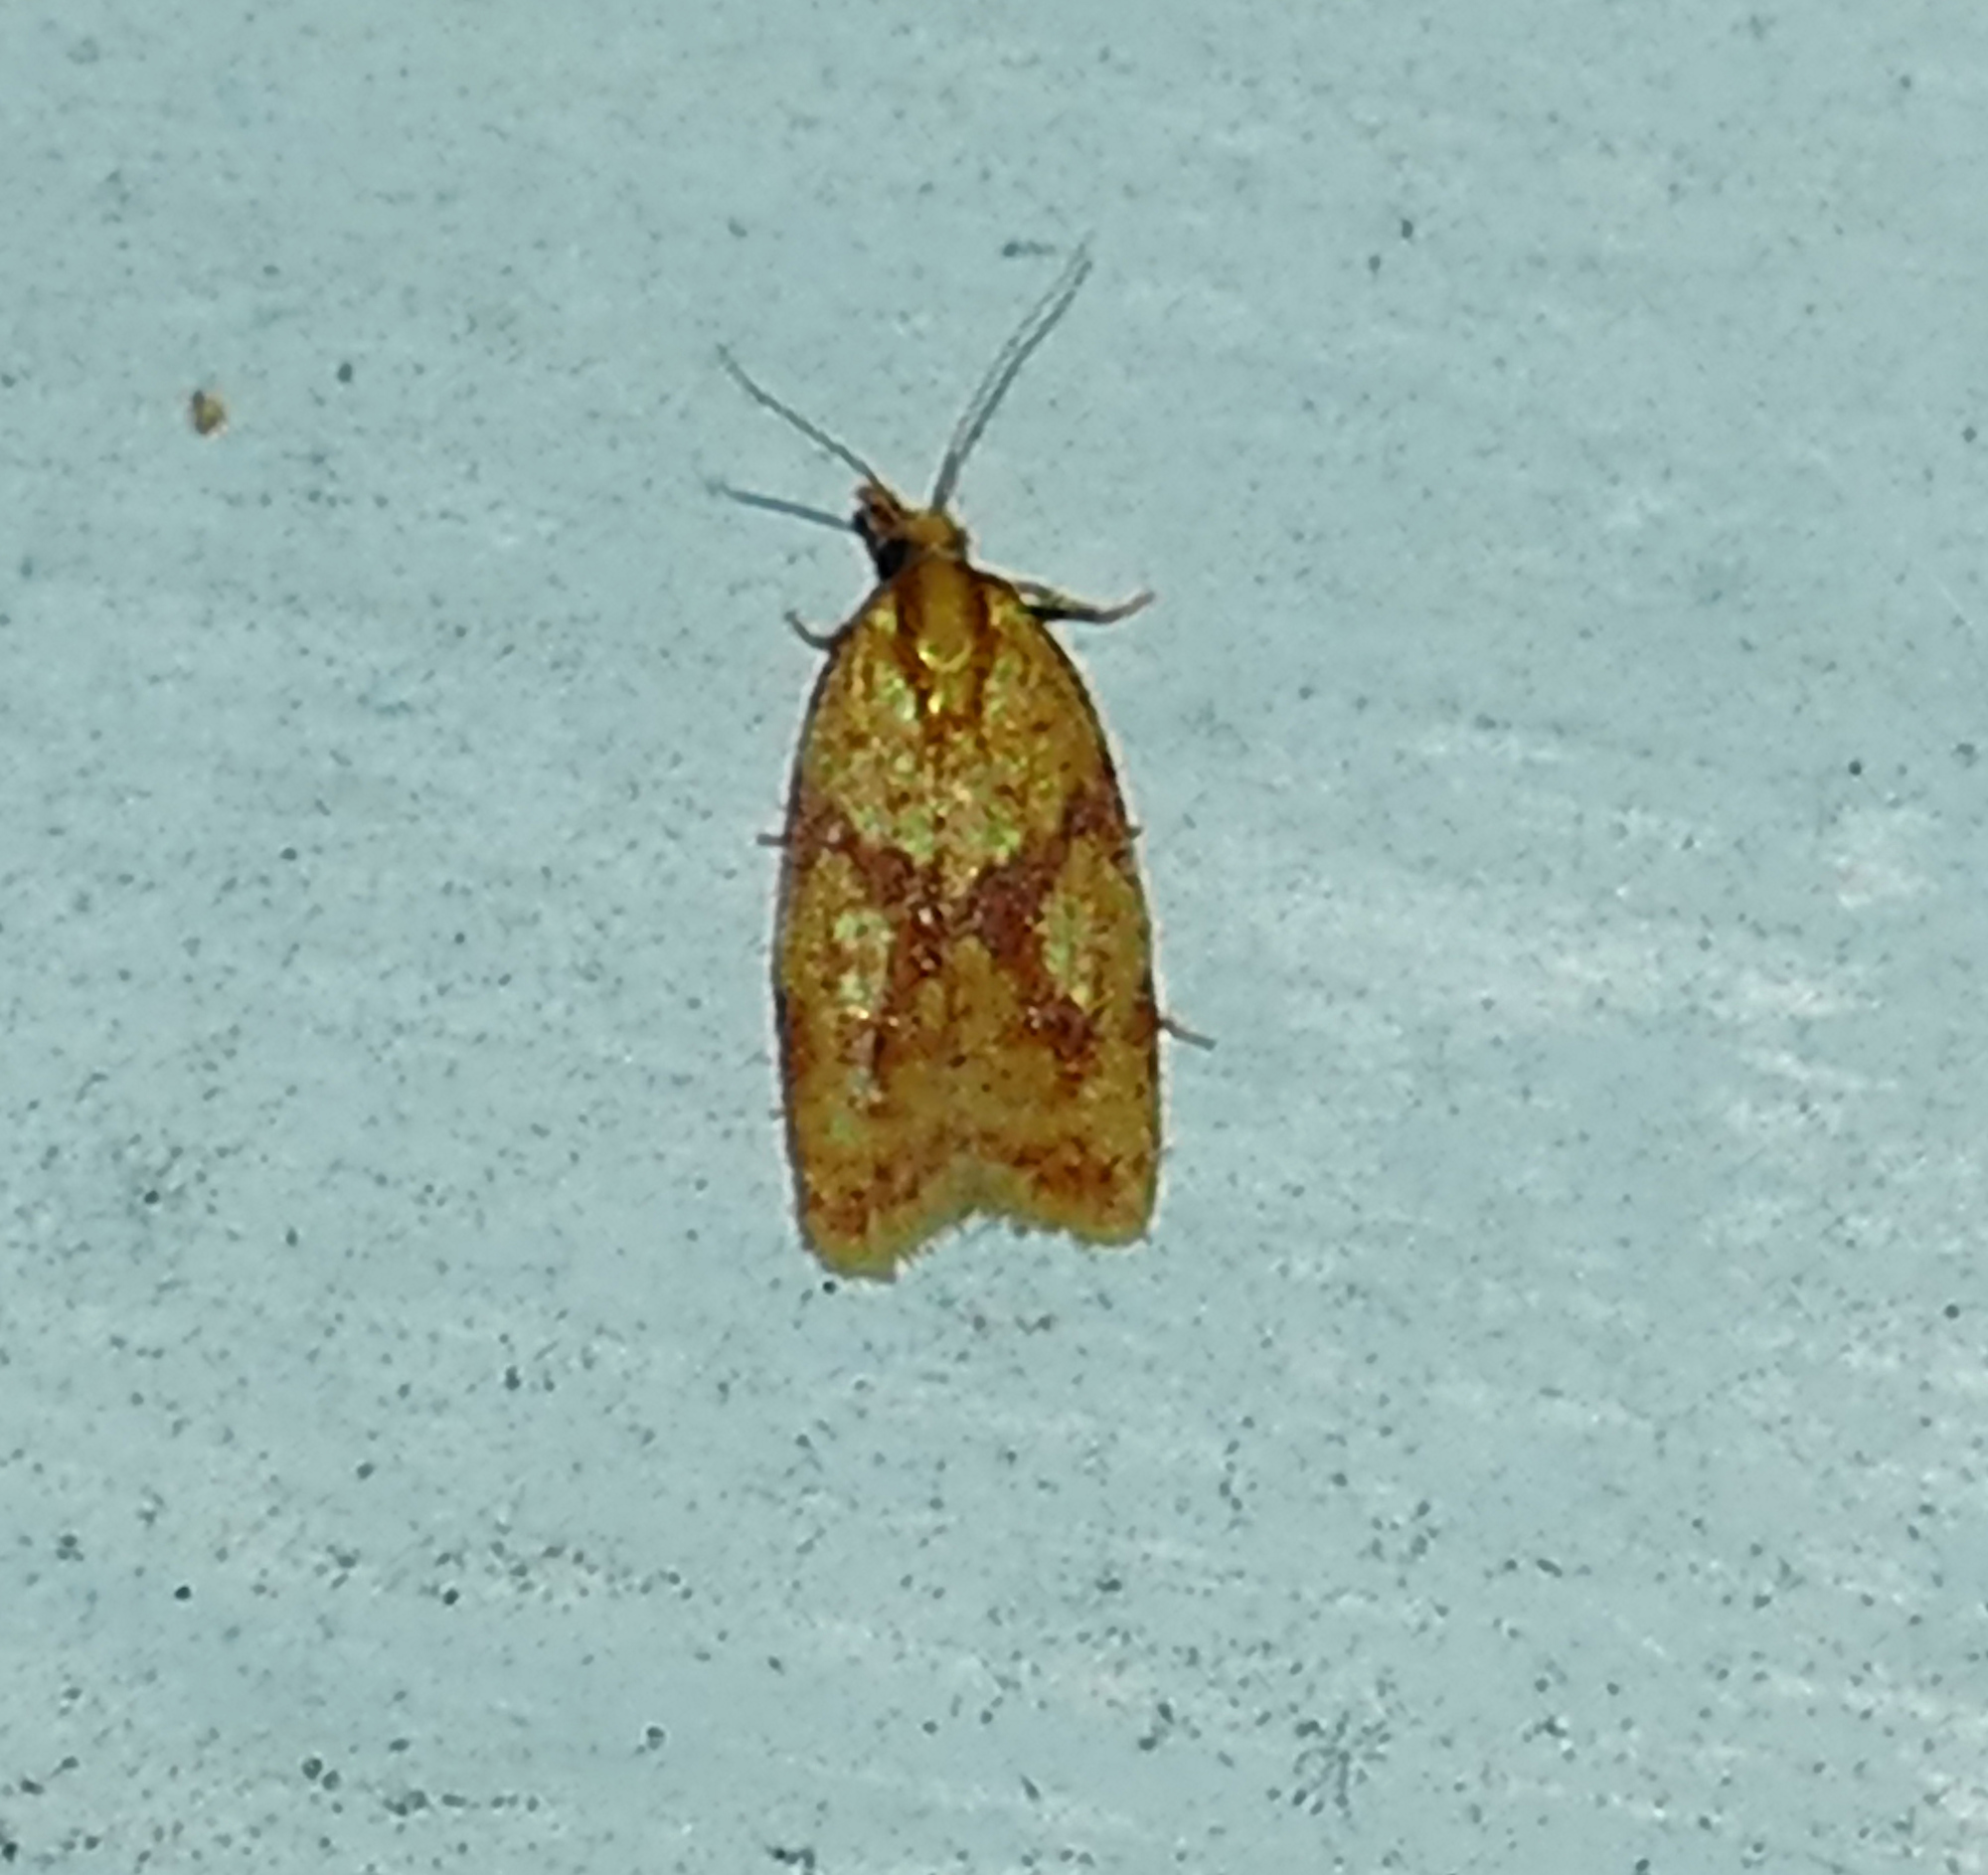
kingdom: Animalia
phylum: Arthropoda
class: Insecta
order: Lepidoptera
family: Tortricidae
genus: Sparganothis
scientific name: Sparganothis sulfureana
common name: Sparganothis fruitworm moth
